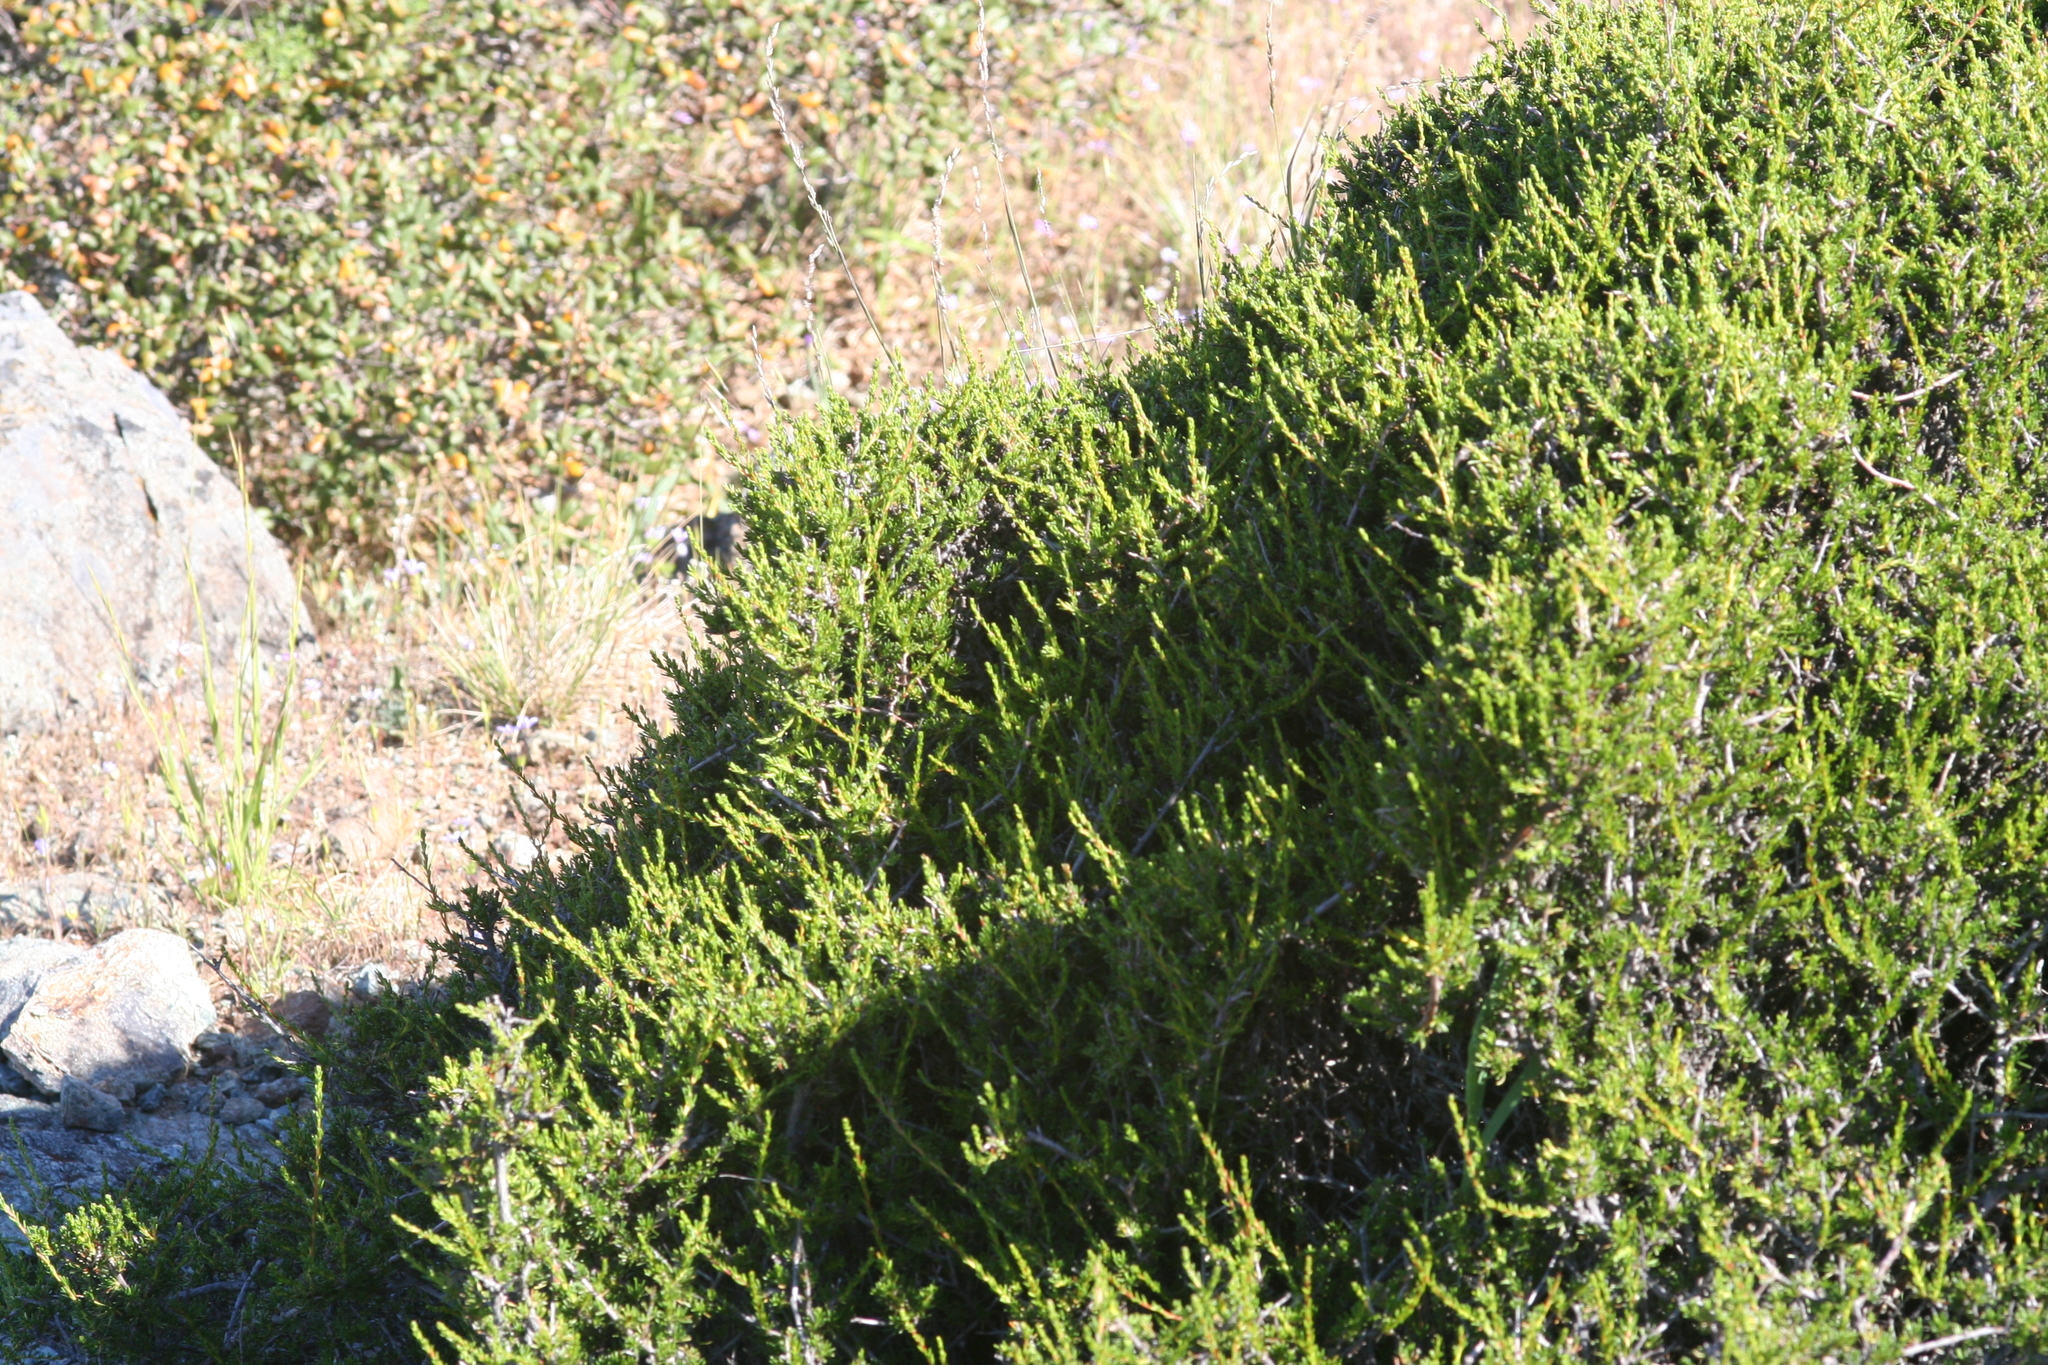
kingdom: Plantae
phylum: Tracheophyta
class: Magnoliopsida
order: Rosales
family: Rosaceae
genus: Adenostoma
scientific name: Adenostoma fasciculatum
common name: Chamise
